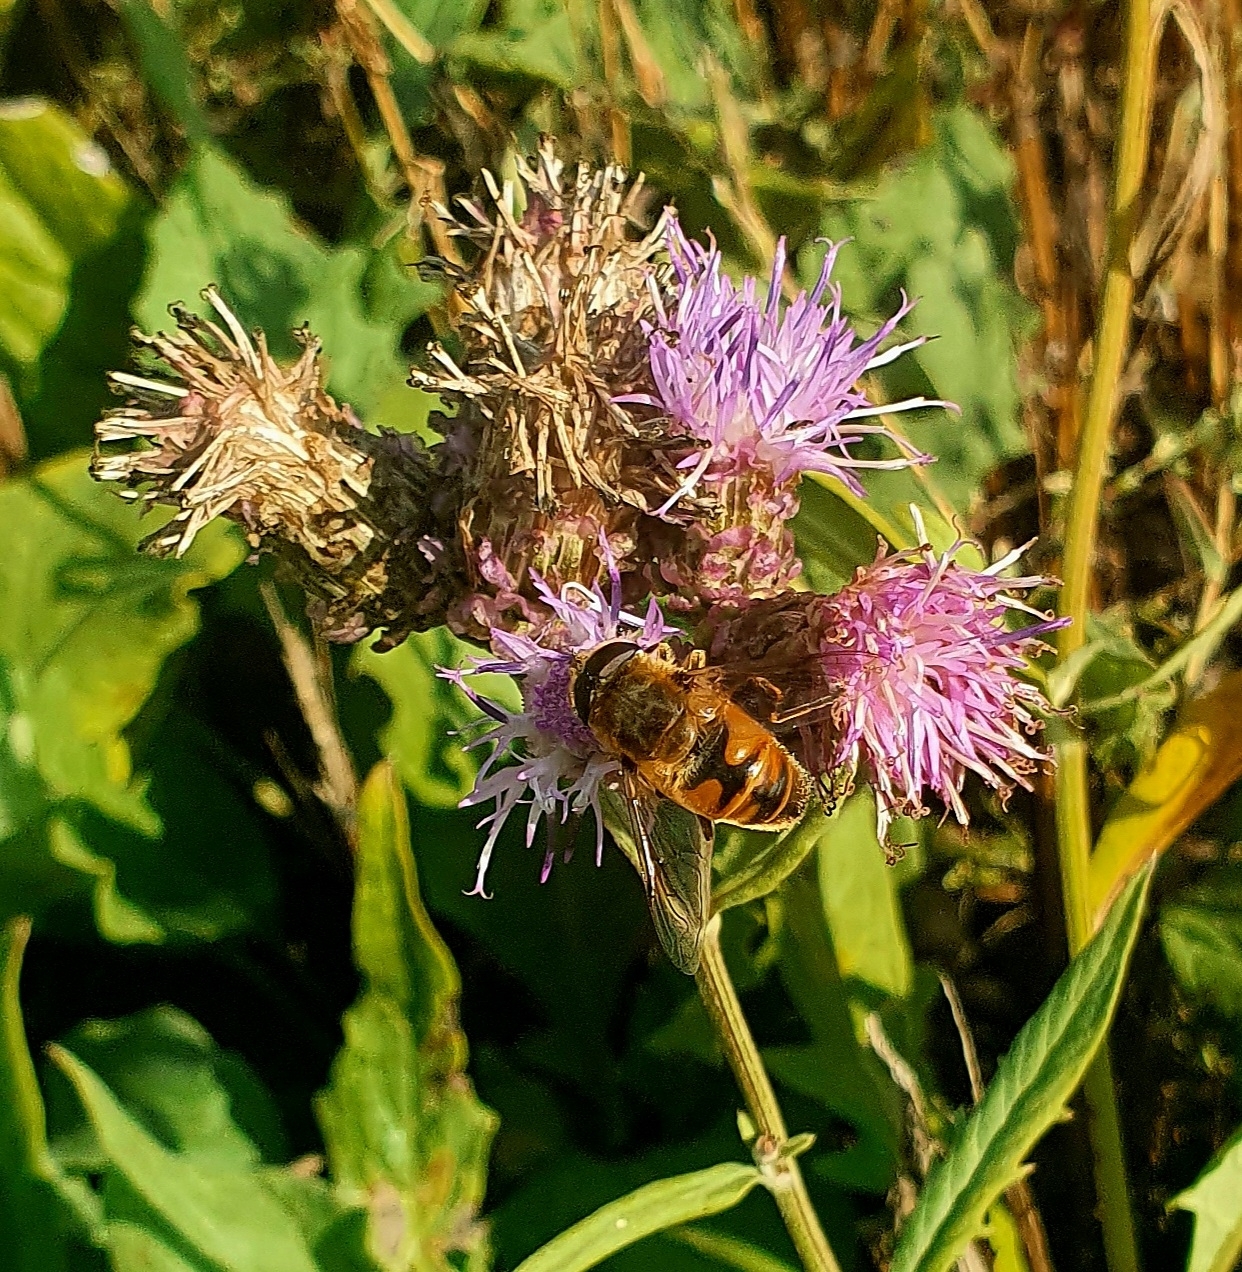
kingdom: Animalia
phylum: Arthropoda
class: Insecta
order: Diptera
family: Syrphidae
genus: Eristalis
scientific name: Eristalis tenax
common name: Drone fly
